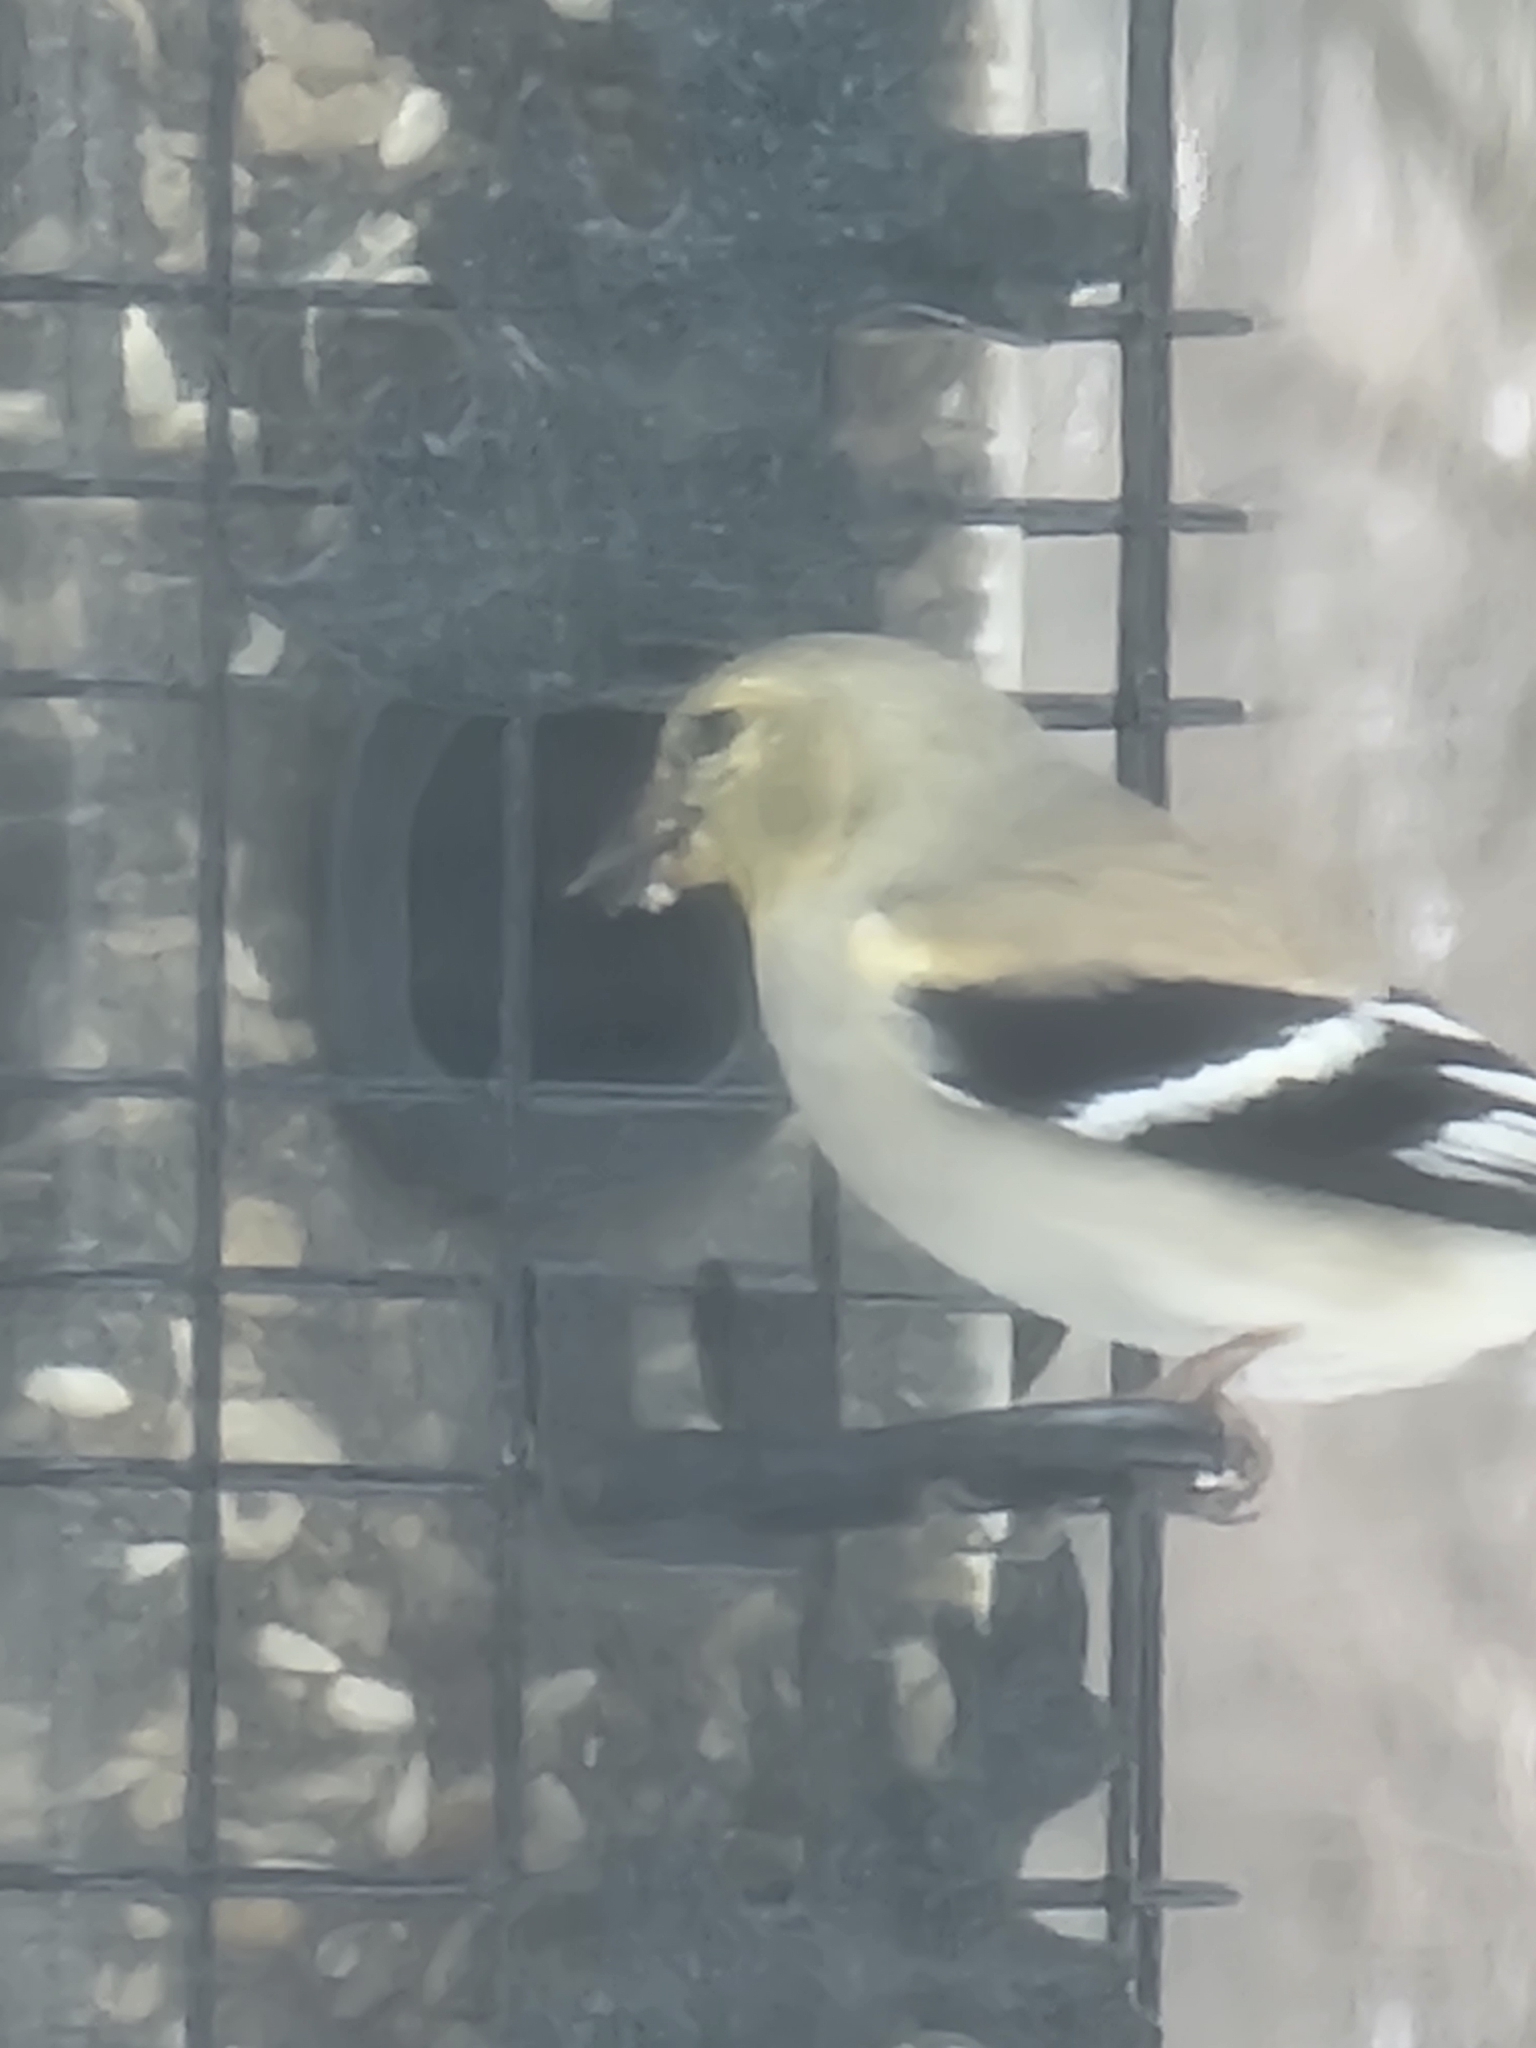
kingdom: Animalia
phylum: Chordata
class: Aves
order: Passeriformes
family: Fringillidae
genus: Spinus
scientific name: Spinus tristis
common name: American goldfinch
